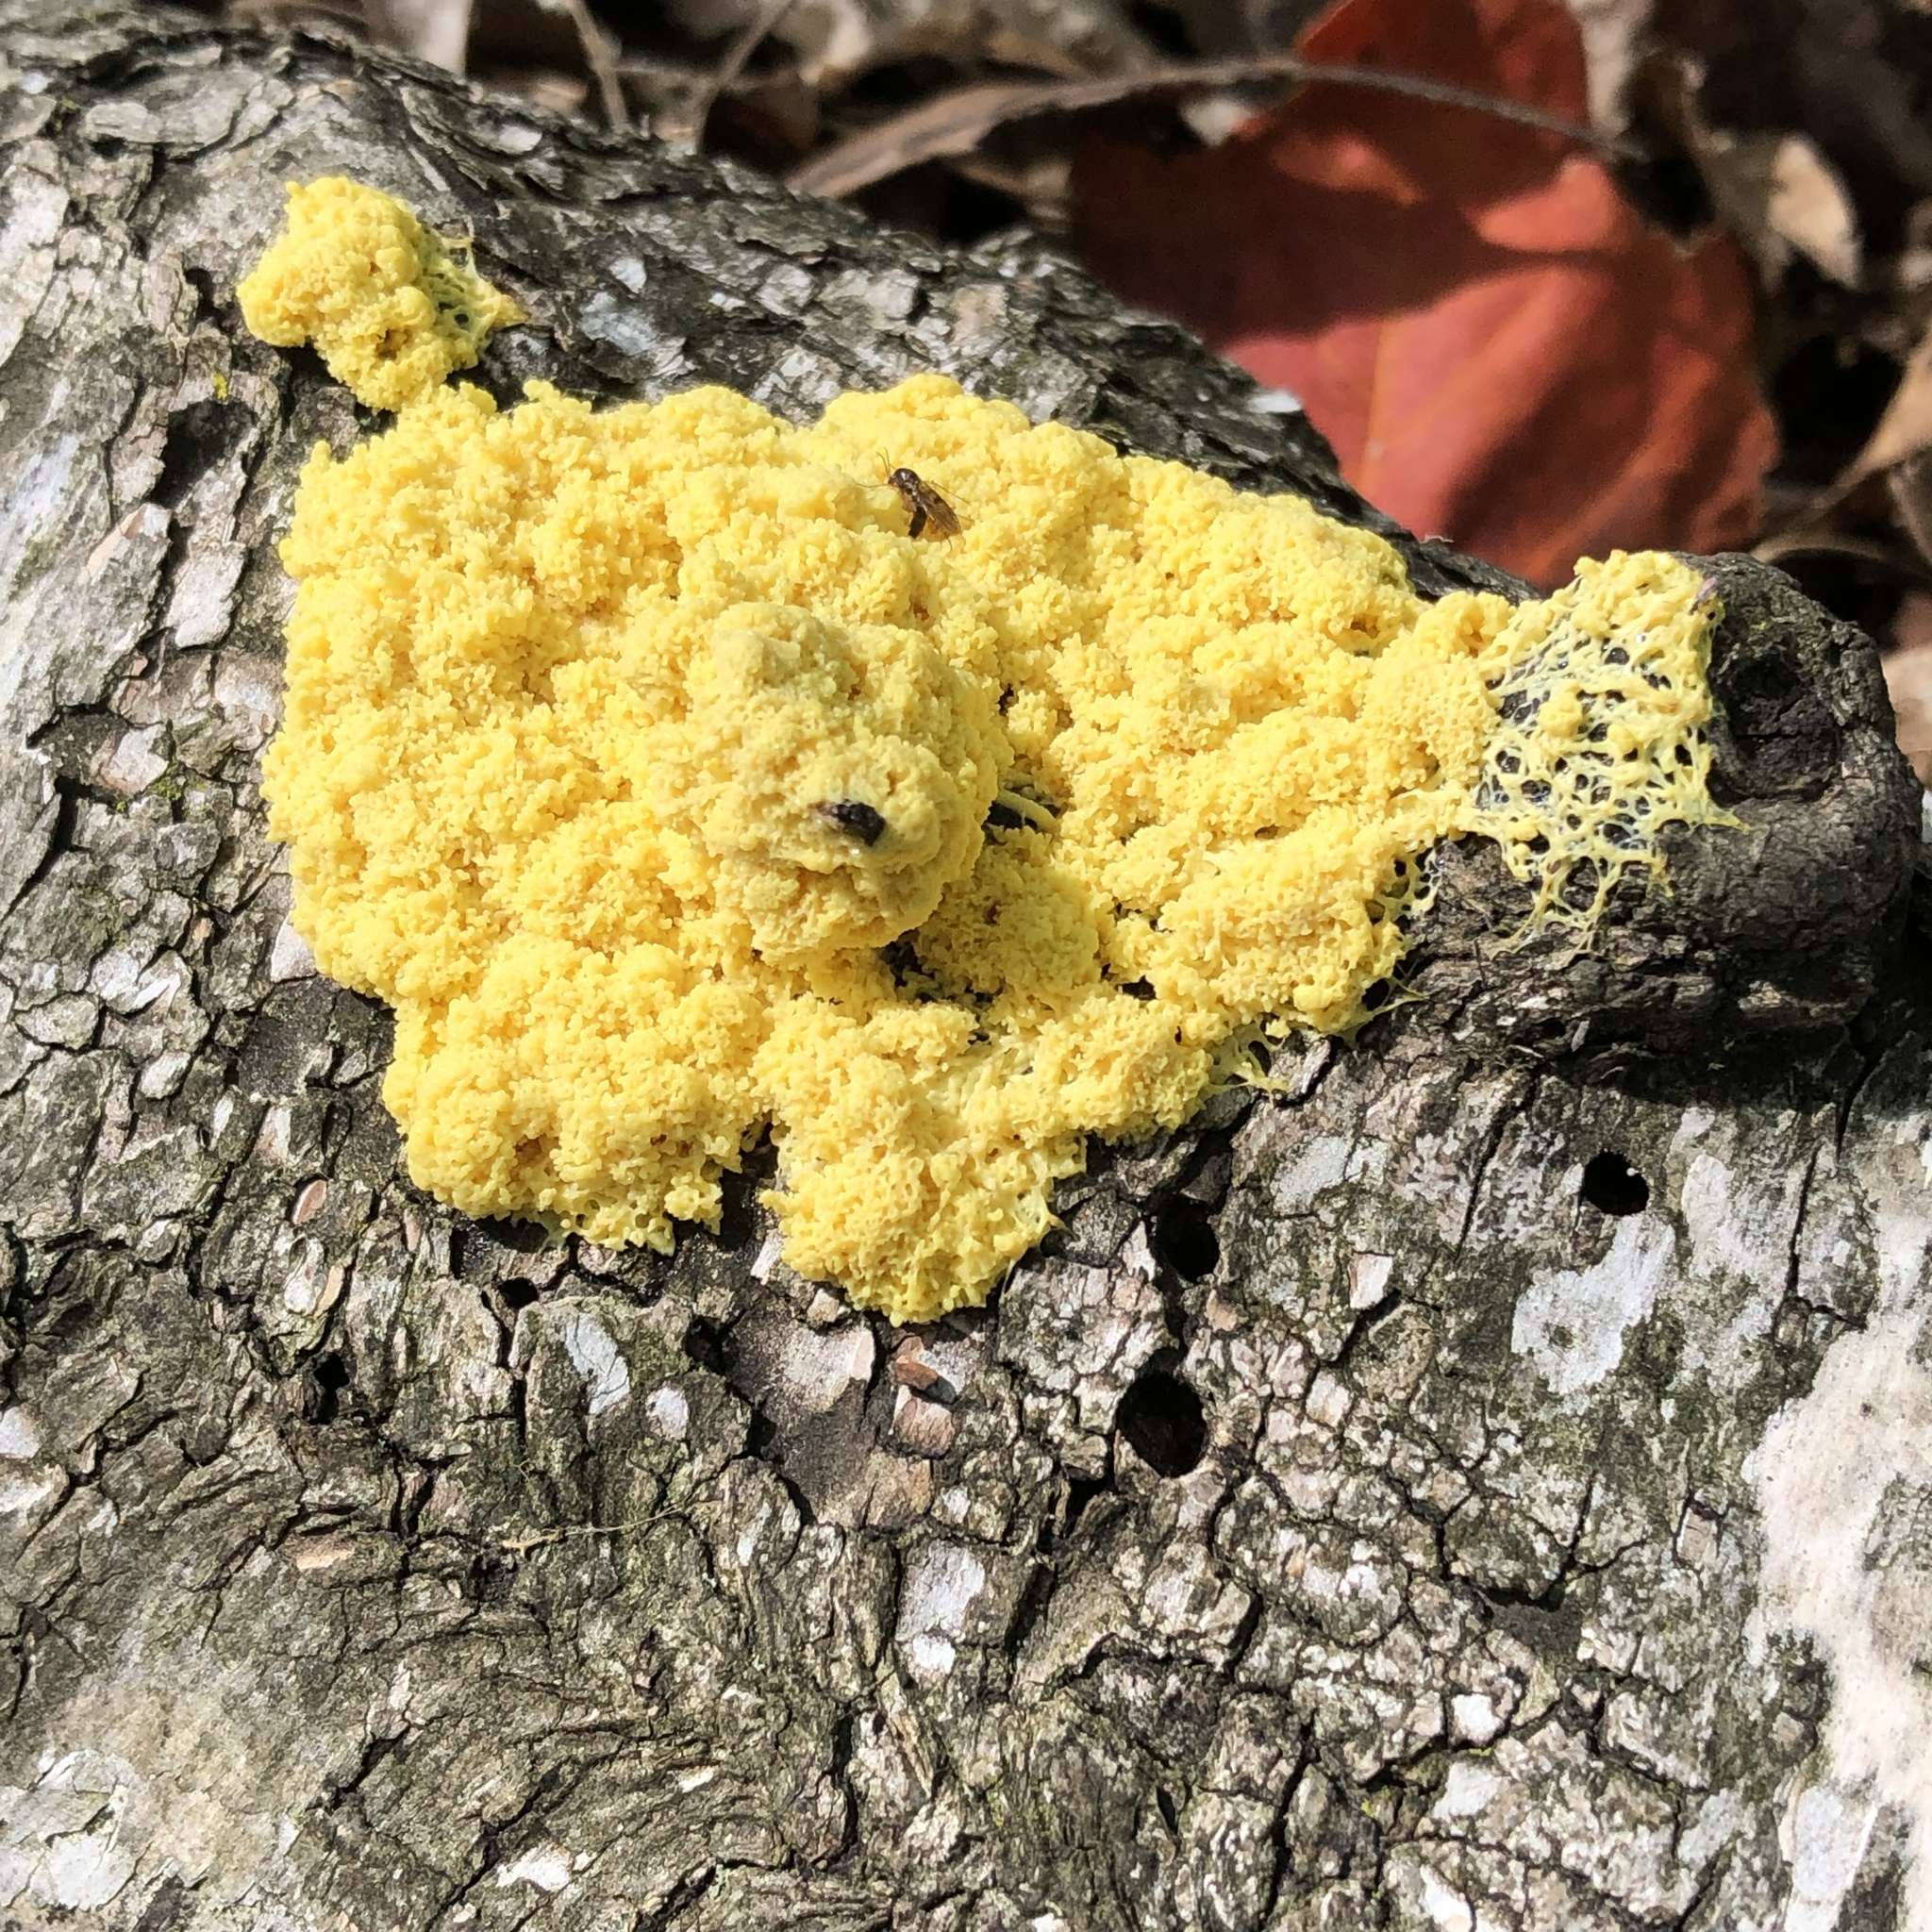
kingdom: Protozoa
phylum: Mycetozoa
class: Myxomycetes
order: Physarales
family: Physaraceae
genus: Fuligo
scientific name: Fuligo septica
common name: Dog vomit slime mold
